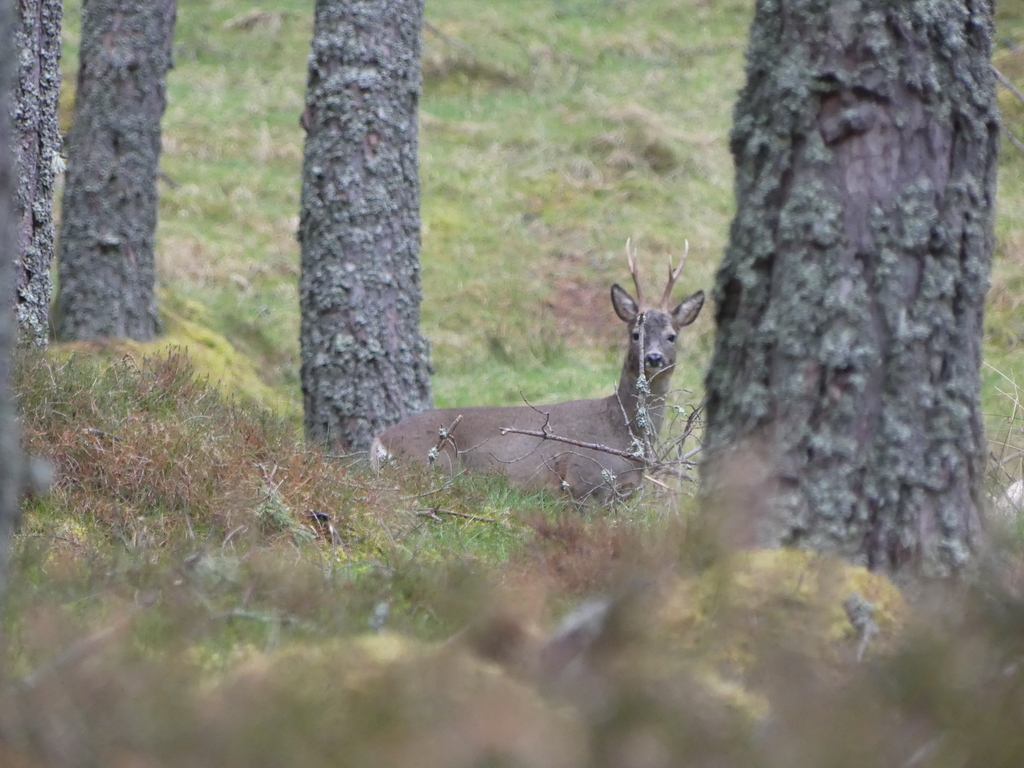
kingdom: Animalia
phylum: Chordata
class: Mammalia
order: Artiodactyla
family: Cervidae
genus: Capreolus
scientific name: Capreolus capreolus
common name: Western roe deer
